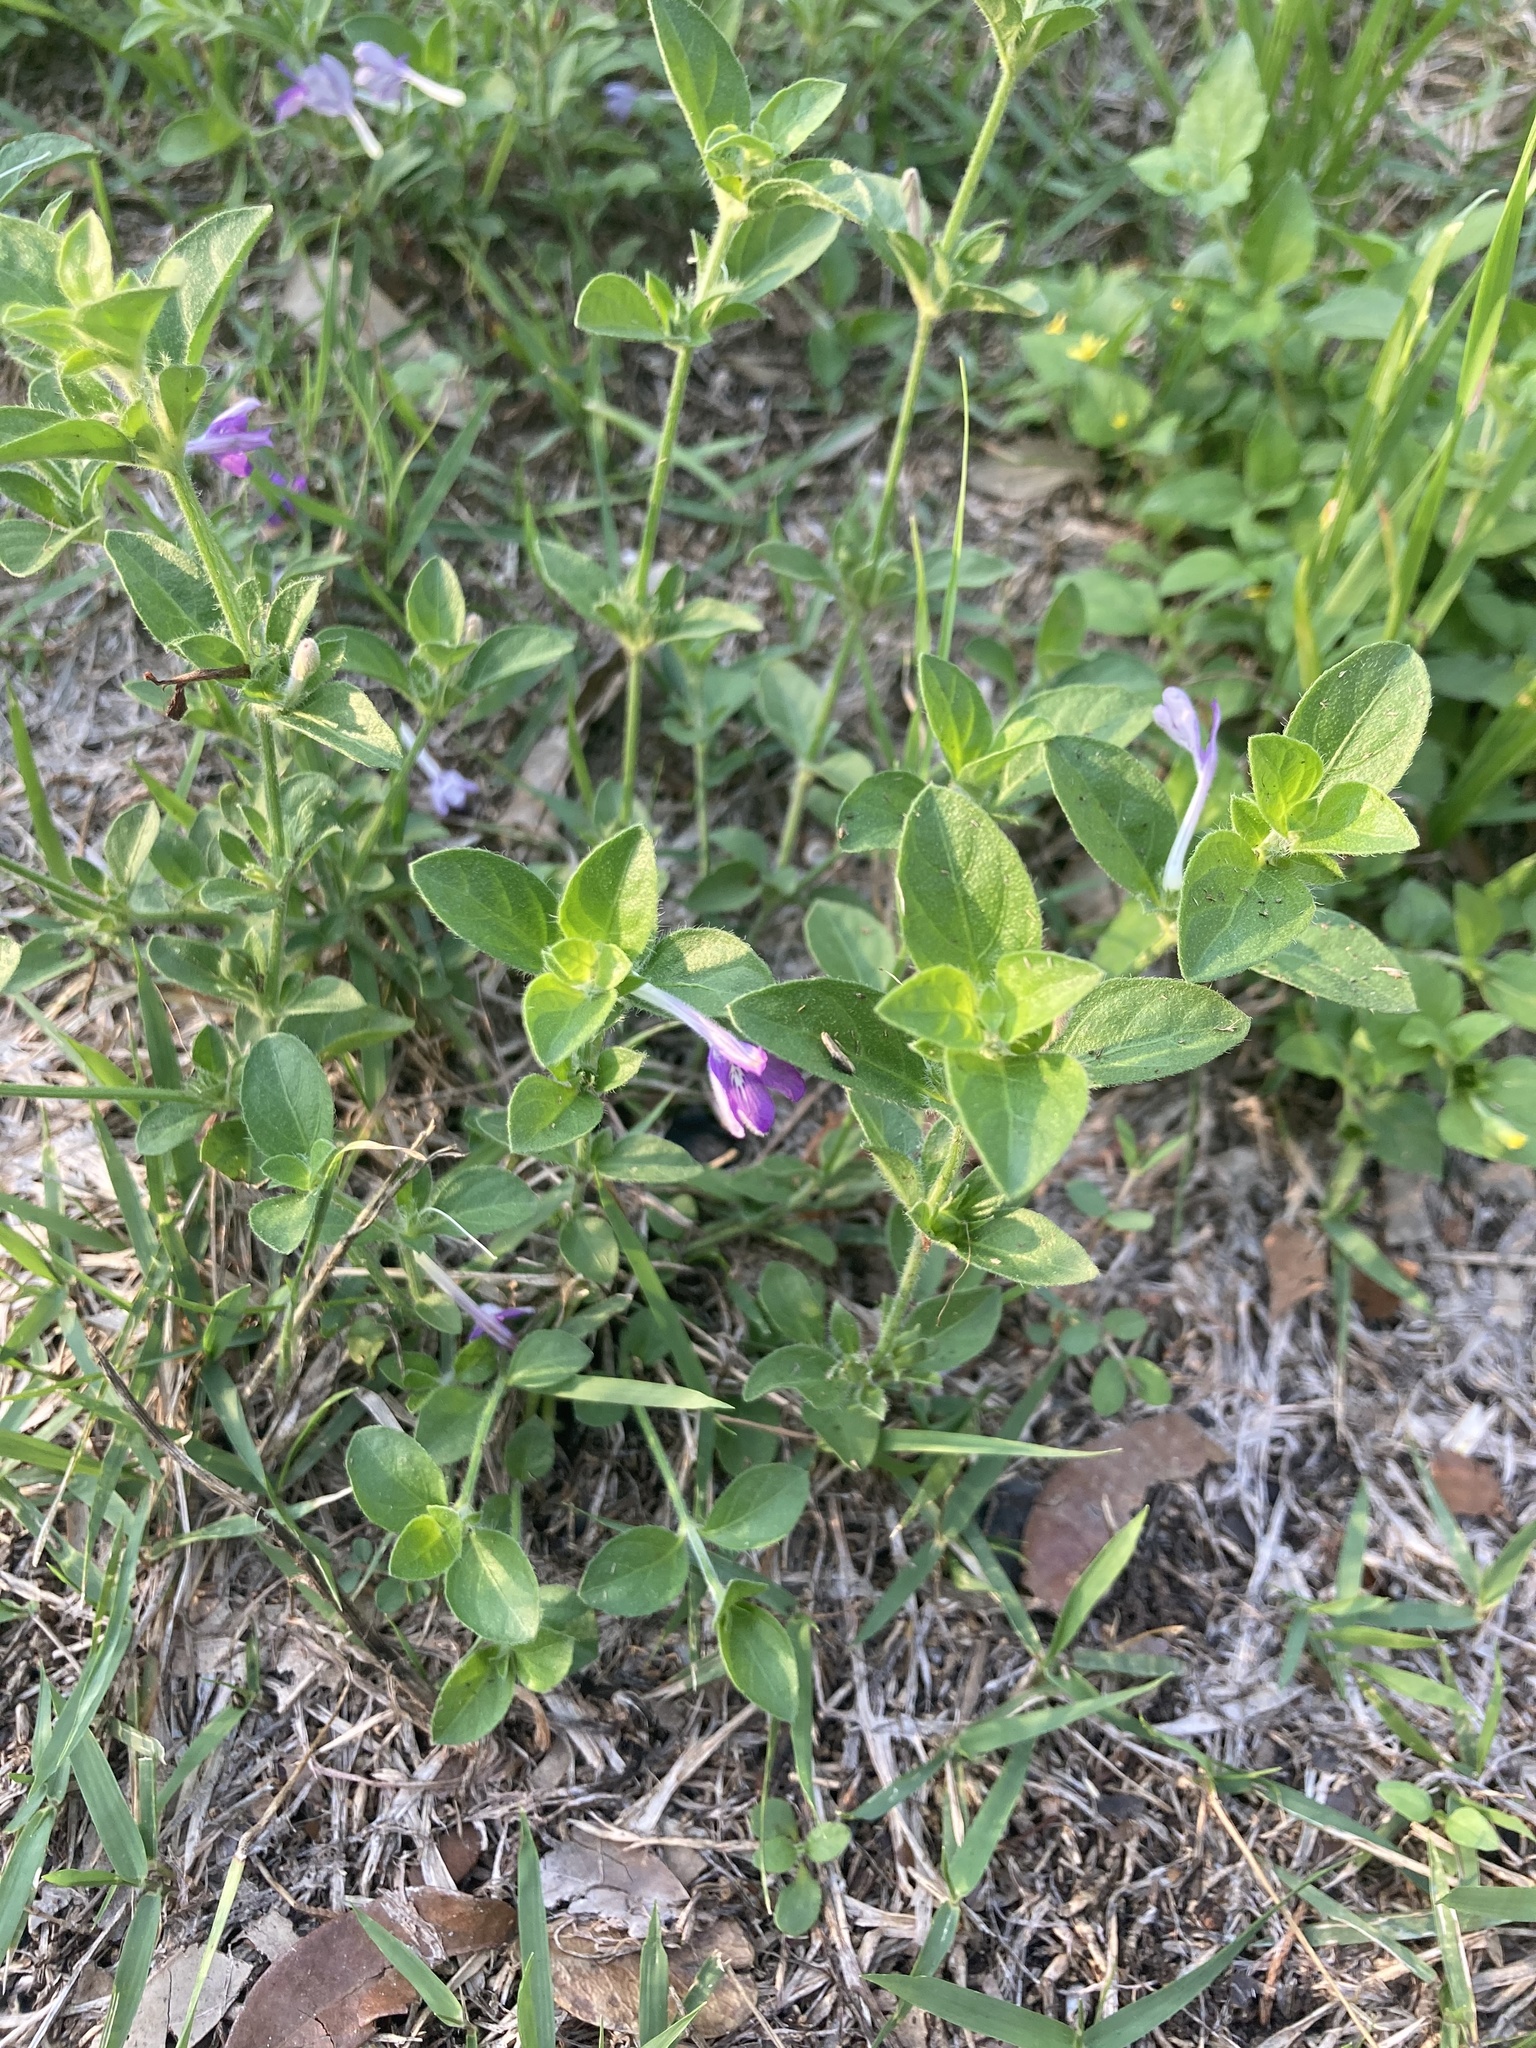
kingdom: Plantae
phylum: Tracheophyta
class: Magnoliopsida
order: Lamiales
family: Acanthaceae
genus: Justicia
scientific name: Justicia pilosella
